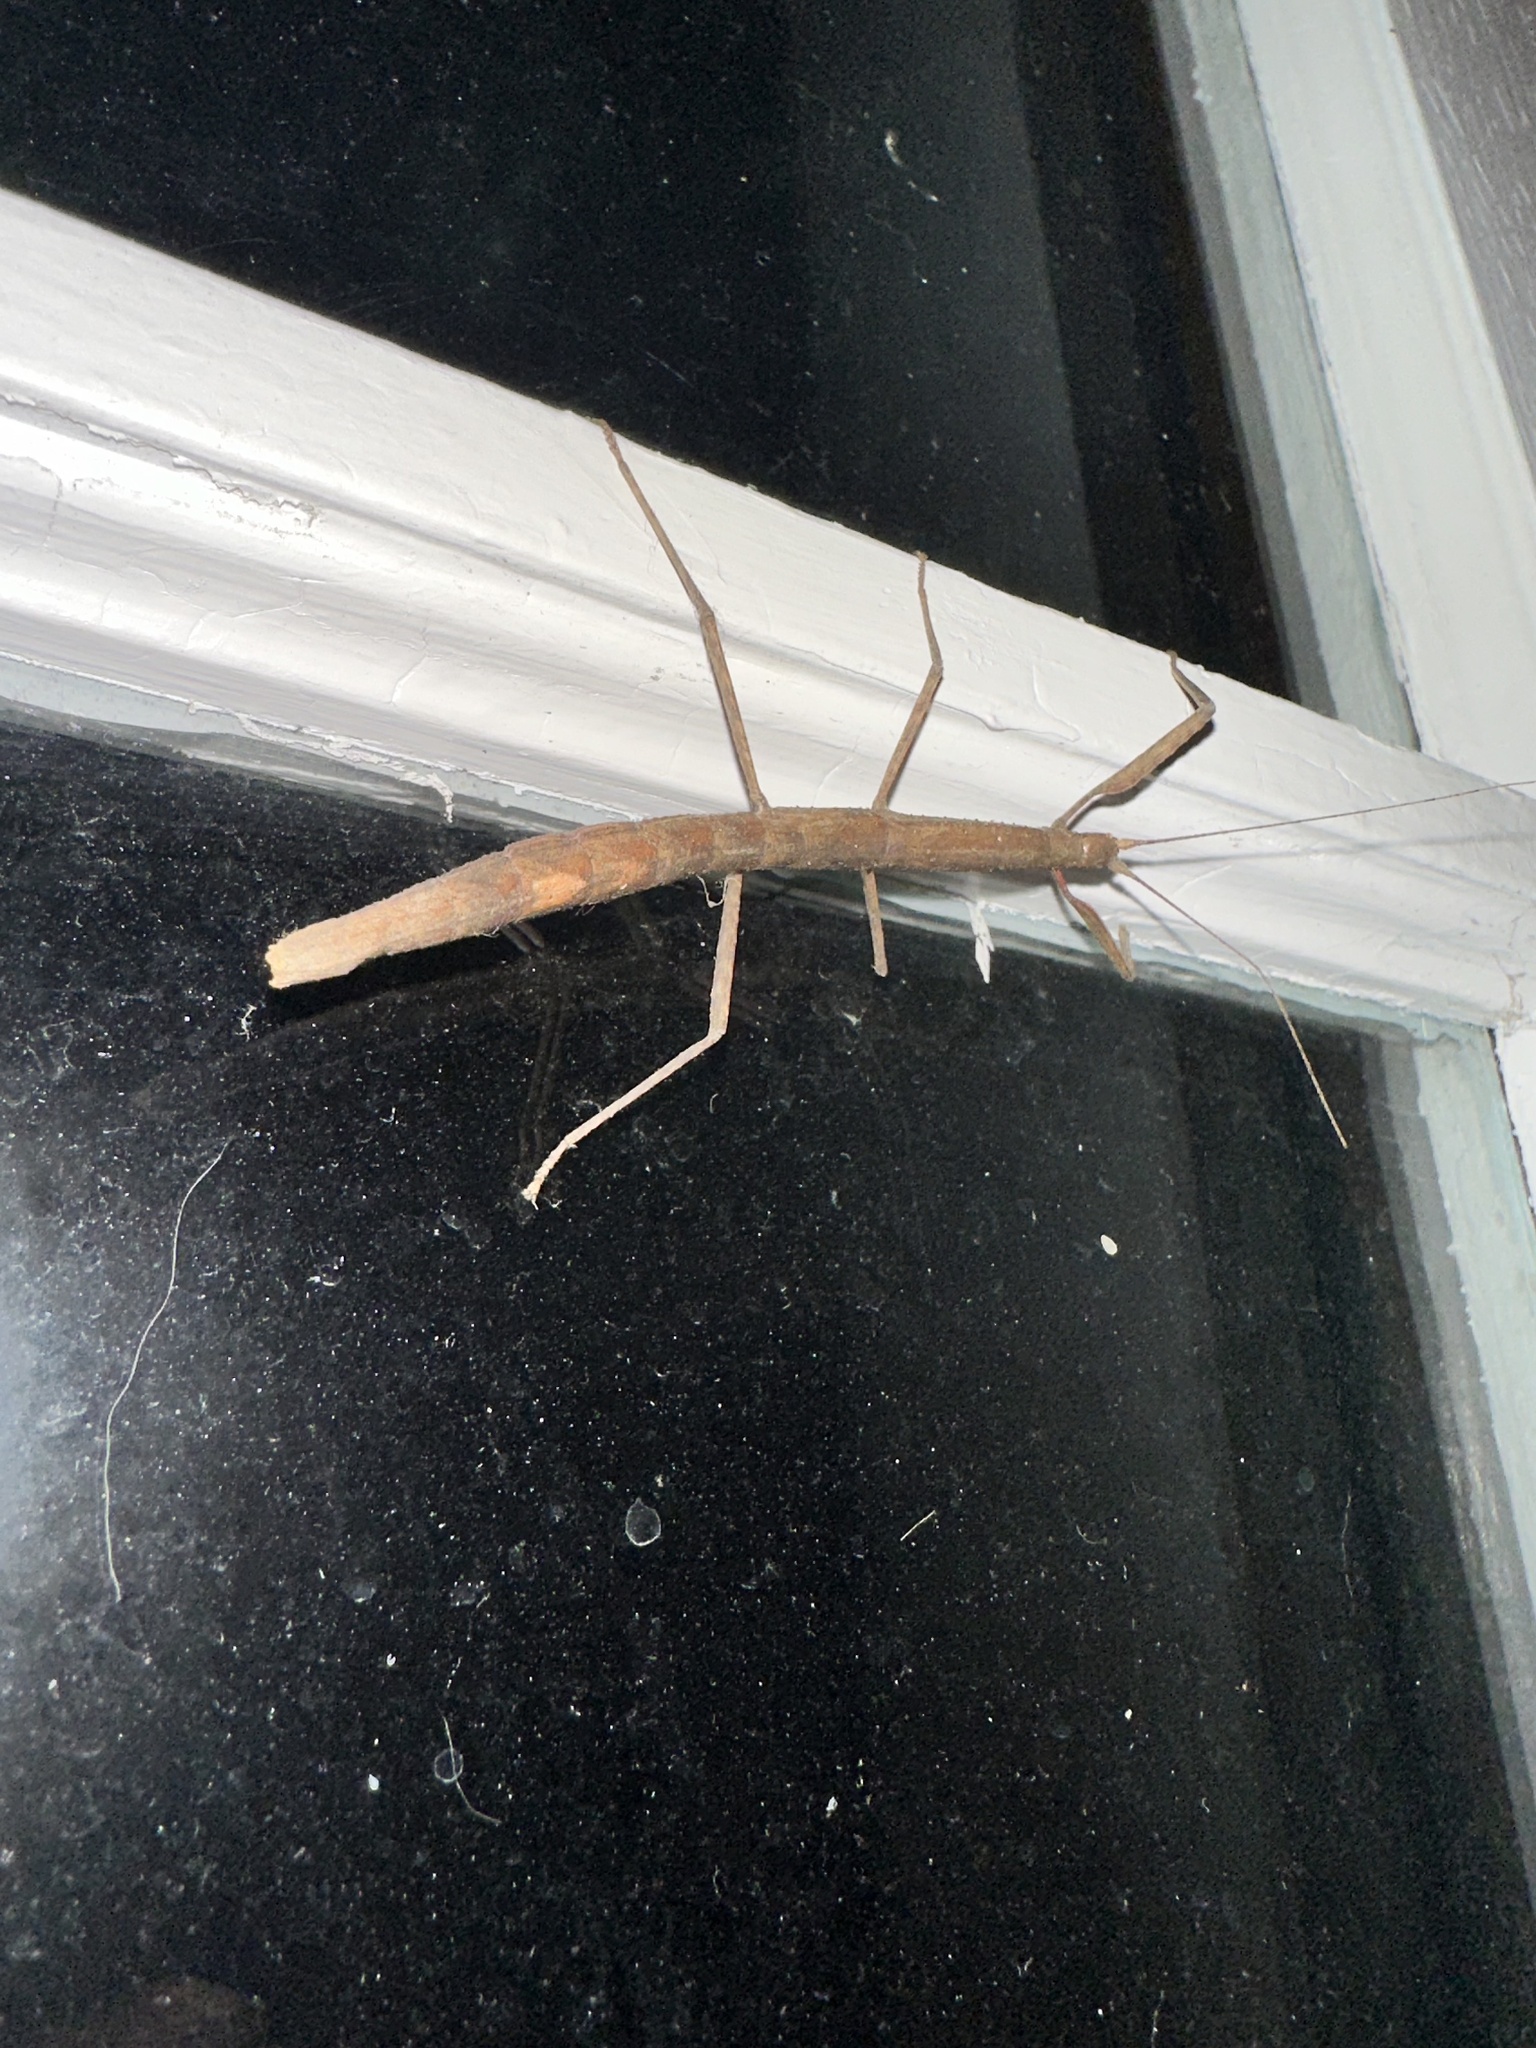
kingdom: Animalia
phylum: Arthropoda
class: Insecta
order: Phasmida
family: Lonchodidae
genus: Carausius
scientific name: Carausius morosus
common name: Indian stick insect
